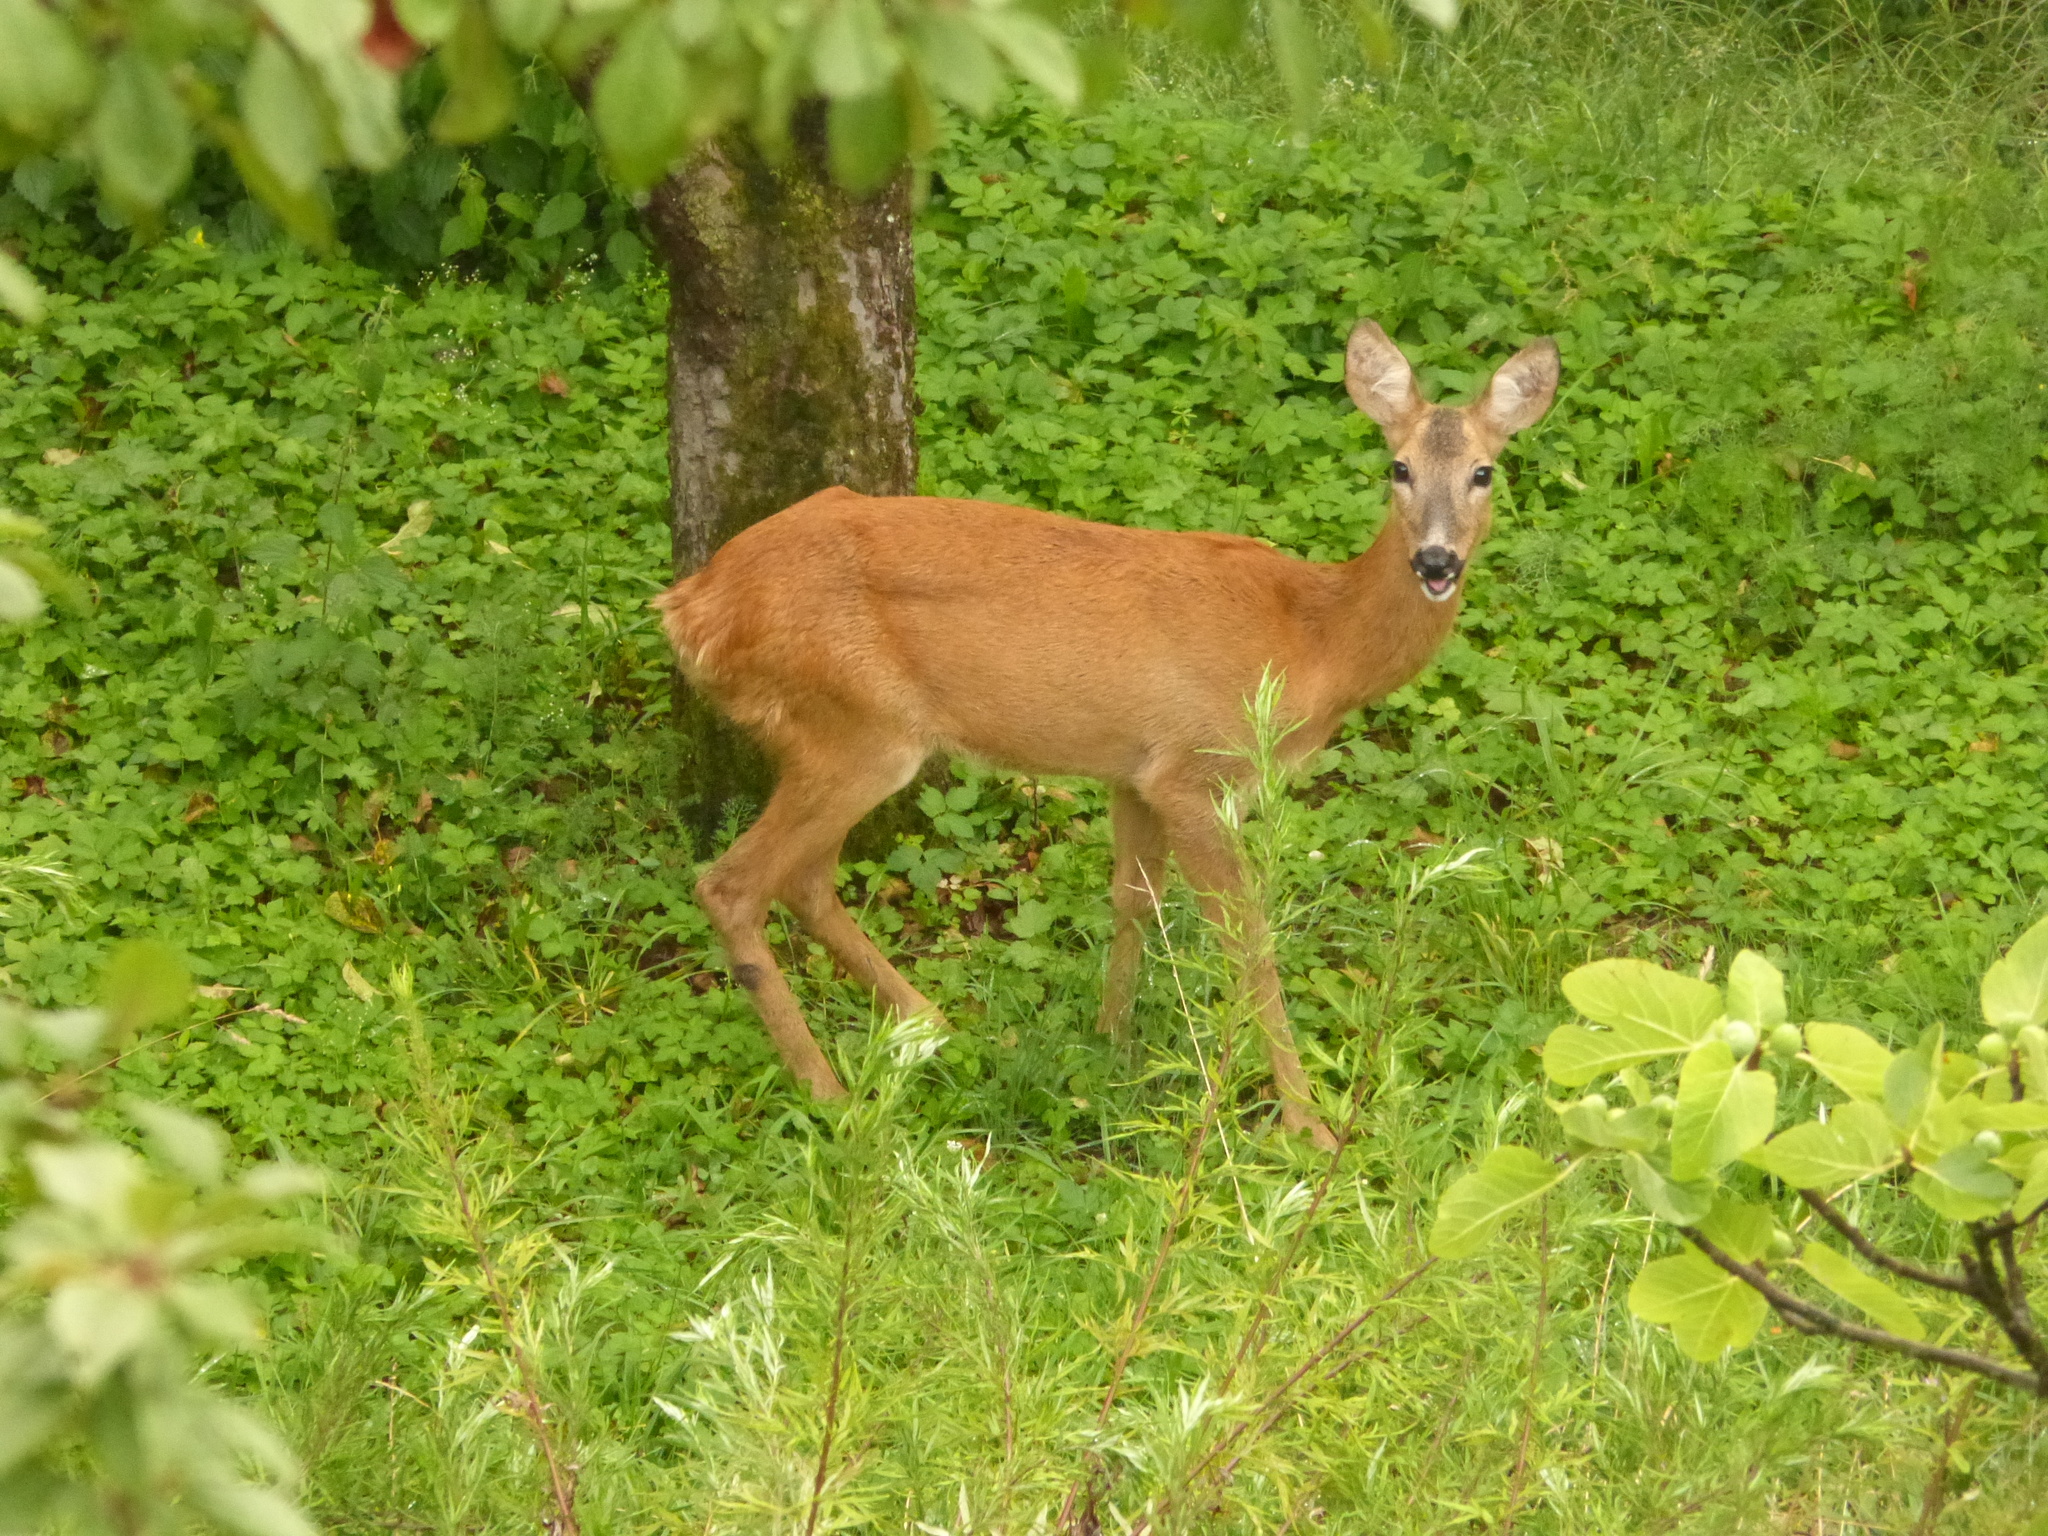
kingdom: Animalia
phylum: Chordata
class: Mammalia
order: Artiodactyla
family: Cervidae
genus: Capreolus
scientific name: Capreolus capreolus
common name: Western roe deer
